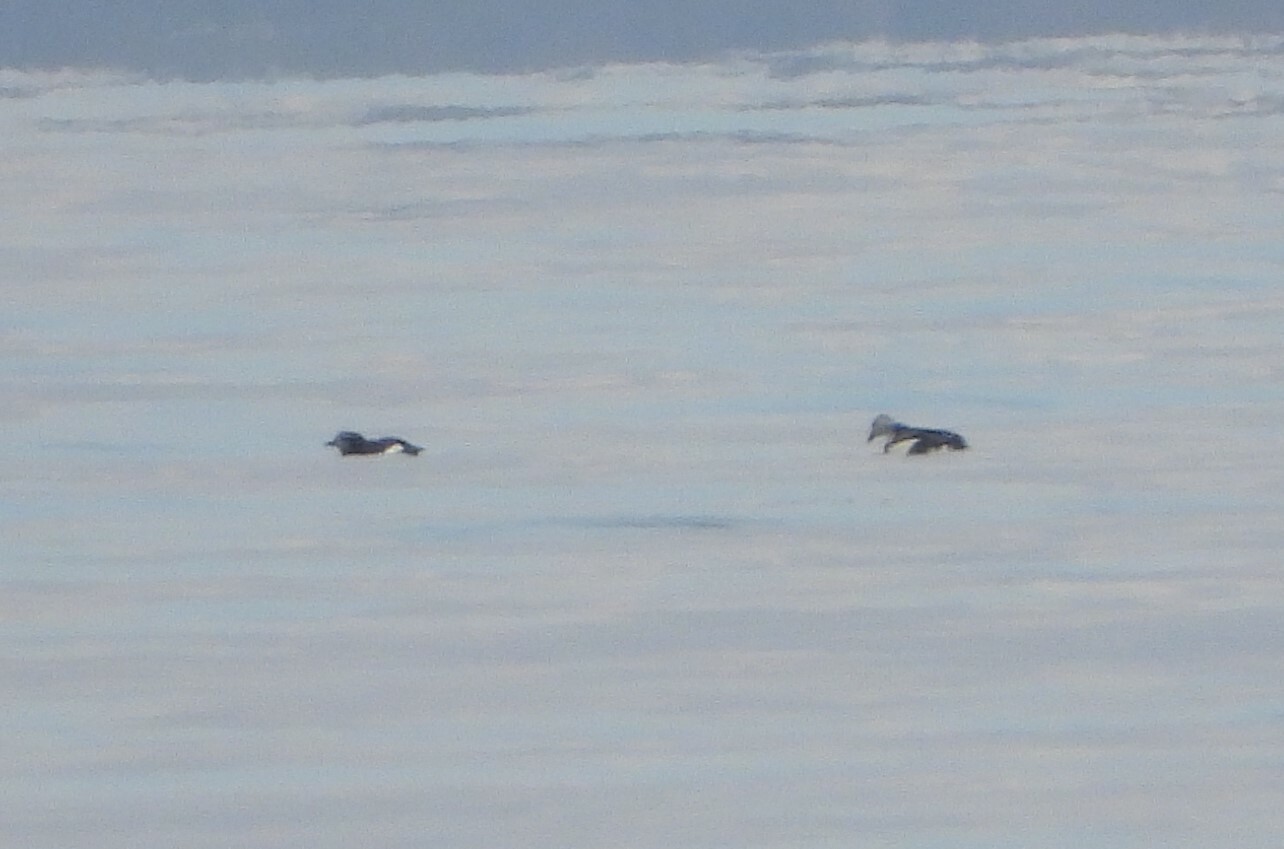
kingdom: Animalia
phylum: Chordata
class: Aves
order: Charadriiformes
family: Alcidae
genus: Cepphus
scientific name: Cepphus grylle
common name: Black guillemot
